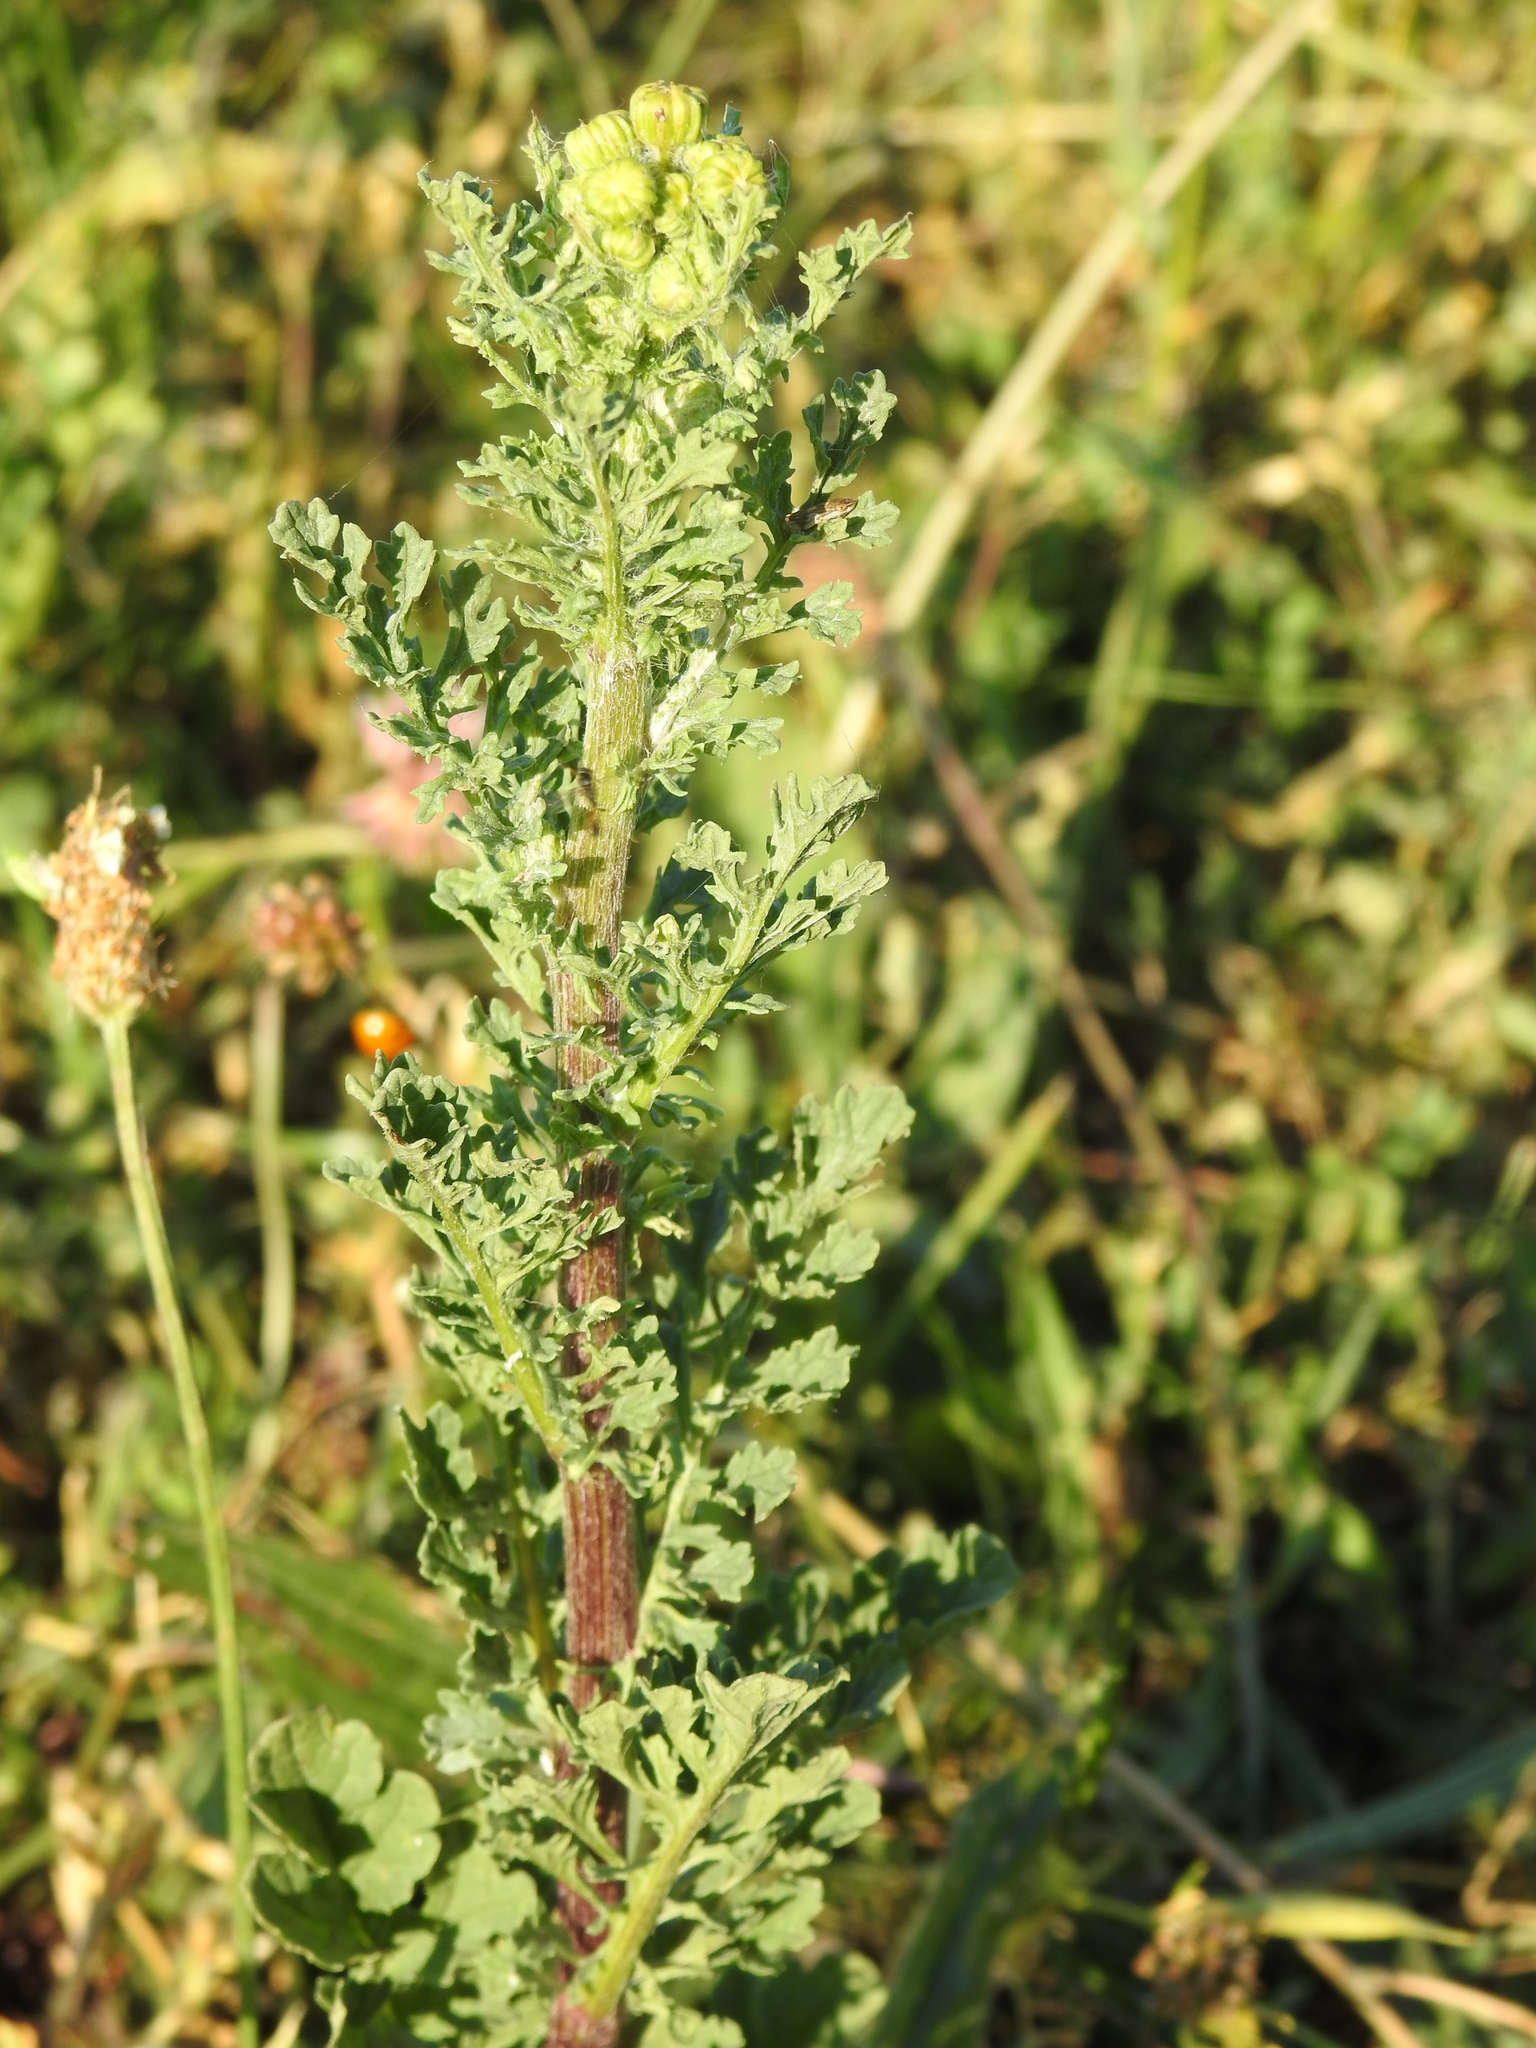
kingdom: Plantae
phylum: Tracheophyta
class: Magnoliopsida
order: Asterales
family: Asteraceae
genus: Jacobaea
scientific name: Jacobaea vulgaris
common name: Stinking willie
